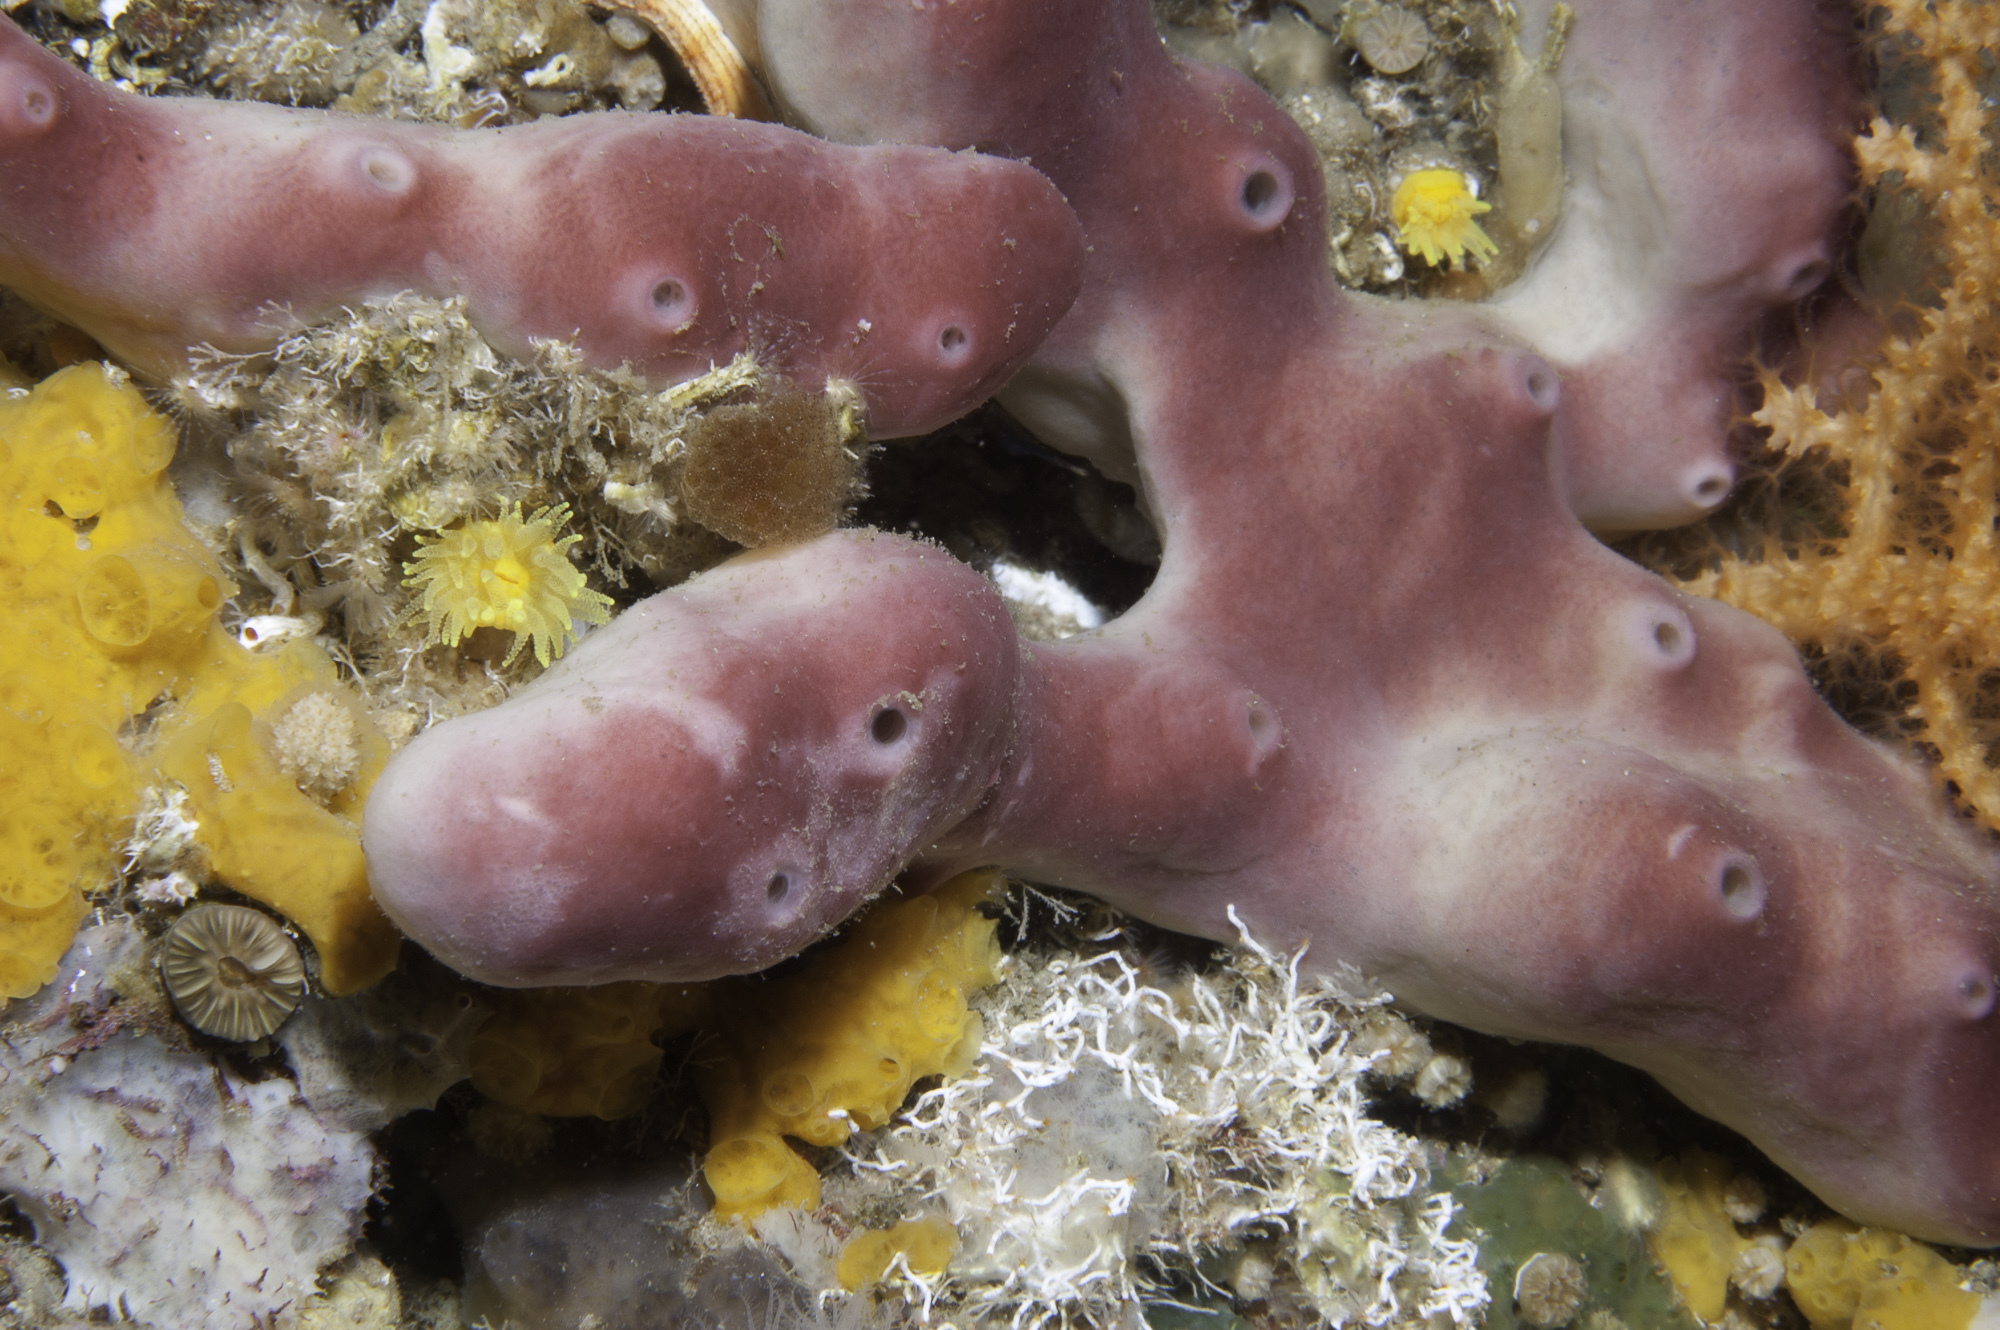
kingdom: Animalia
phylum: Porifera
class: Demospongiae
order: Haplosclerida
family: Petrosiidae
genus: Petrosia
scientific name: Petrosia ficiformis
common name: Stony sponge
